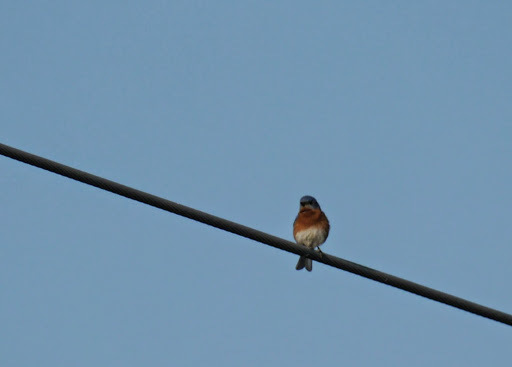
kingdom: Animalia
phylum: Chordata
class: Aves
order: Passeriformes
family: Turdidae
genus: Sialia
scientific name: Sialia sialis
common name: Eastern bluebird
